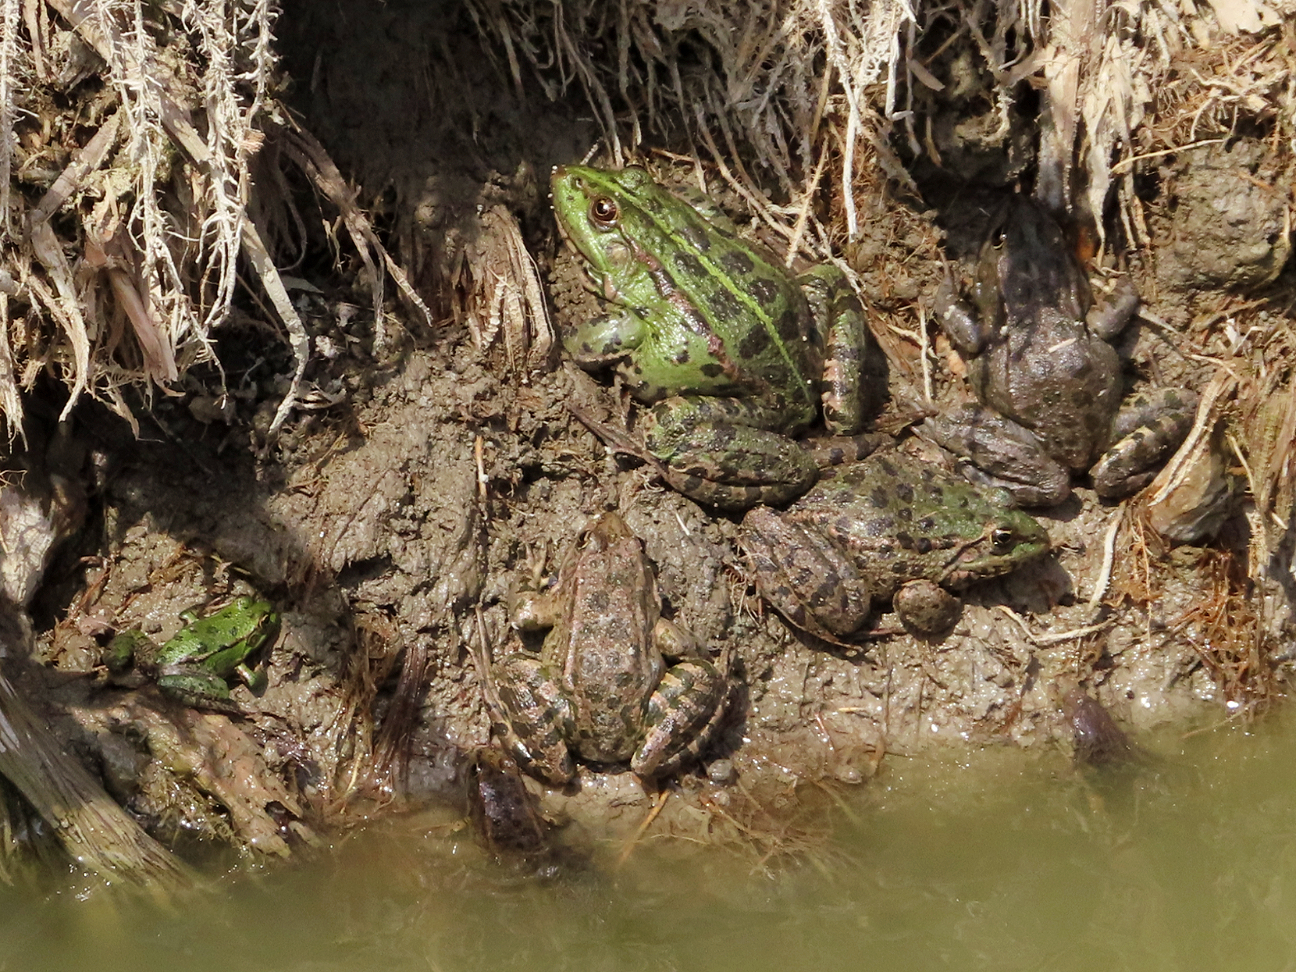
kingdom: Animalia
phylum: Chordata
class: Amphibia
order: Anura
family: Ranidae
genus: Pelophylax
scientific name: Pelophylax ridibundus
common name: Marsh frog
